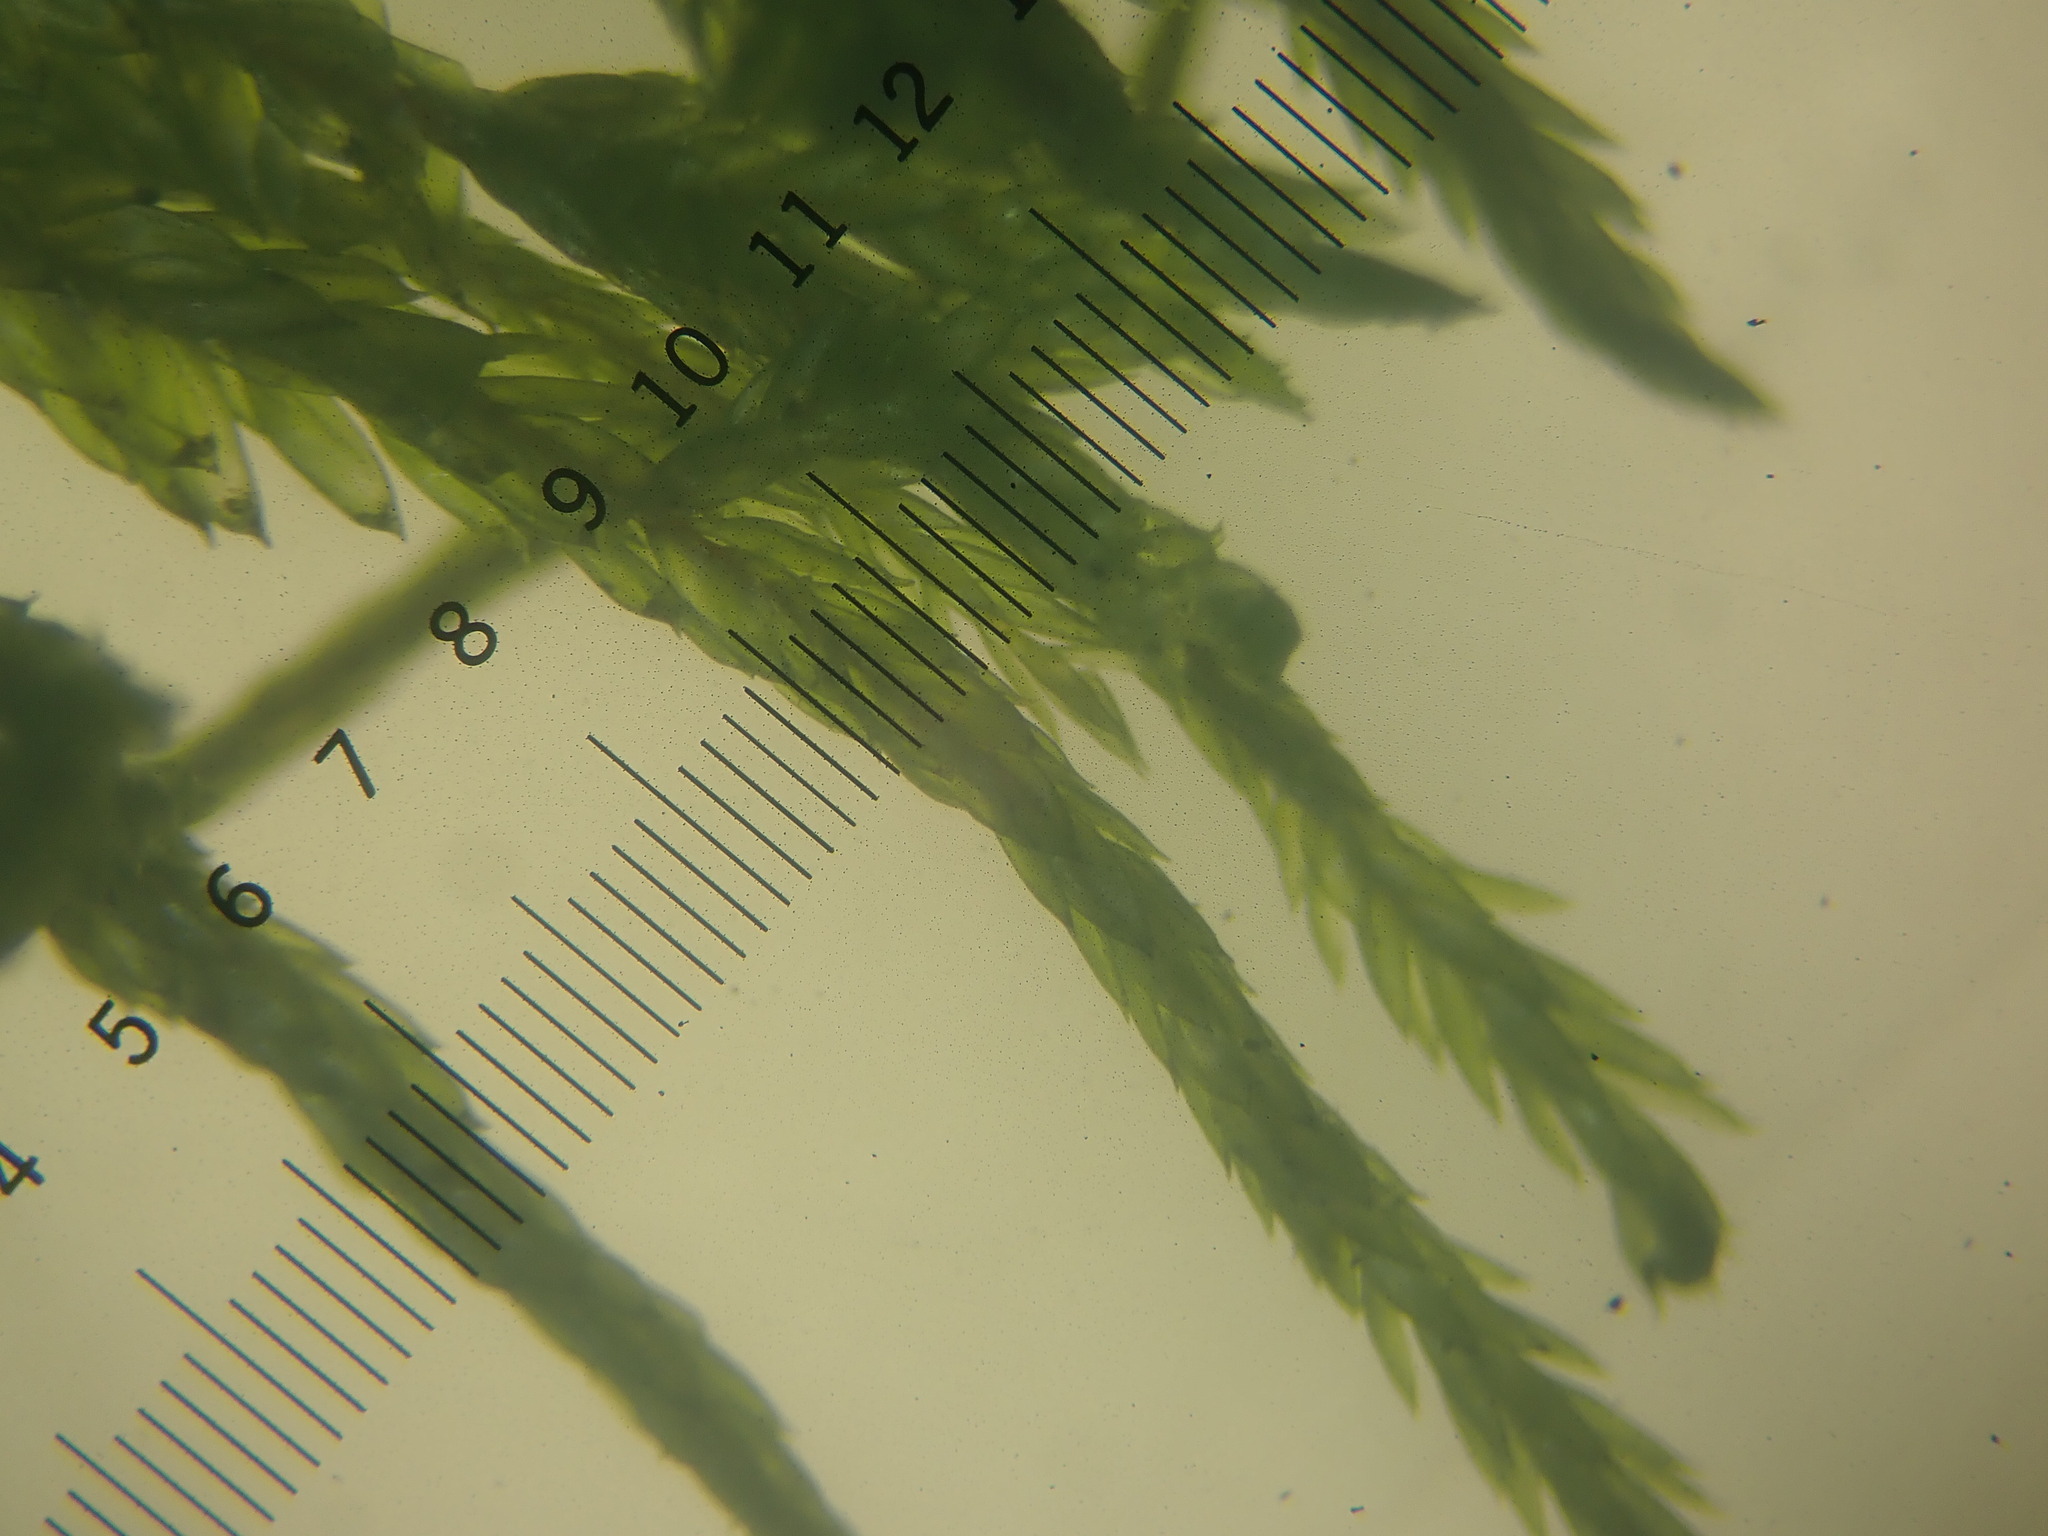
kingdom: Plantae
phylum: Bryophyta
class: Bryopsida
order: Hypnales
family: Hylocomiaceae
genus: Pleurozium
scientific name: Pleurozium schreberi
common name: Red-stemmed feather moss
